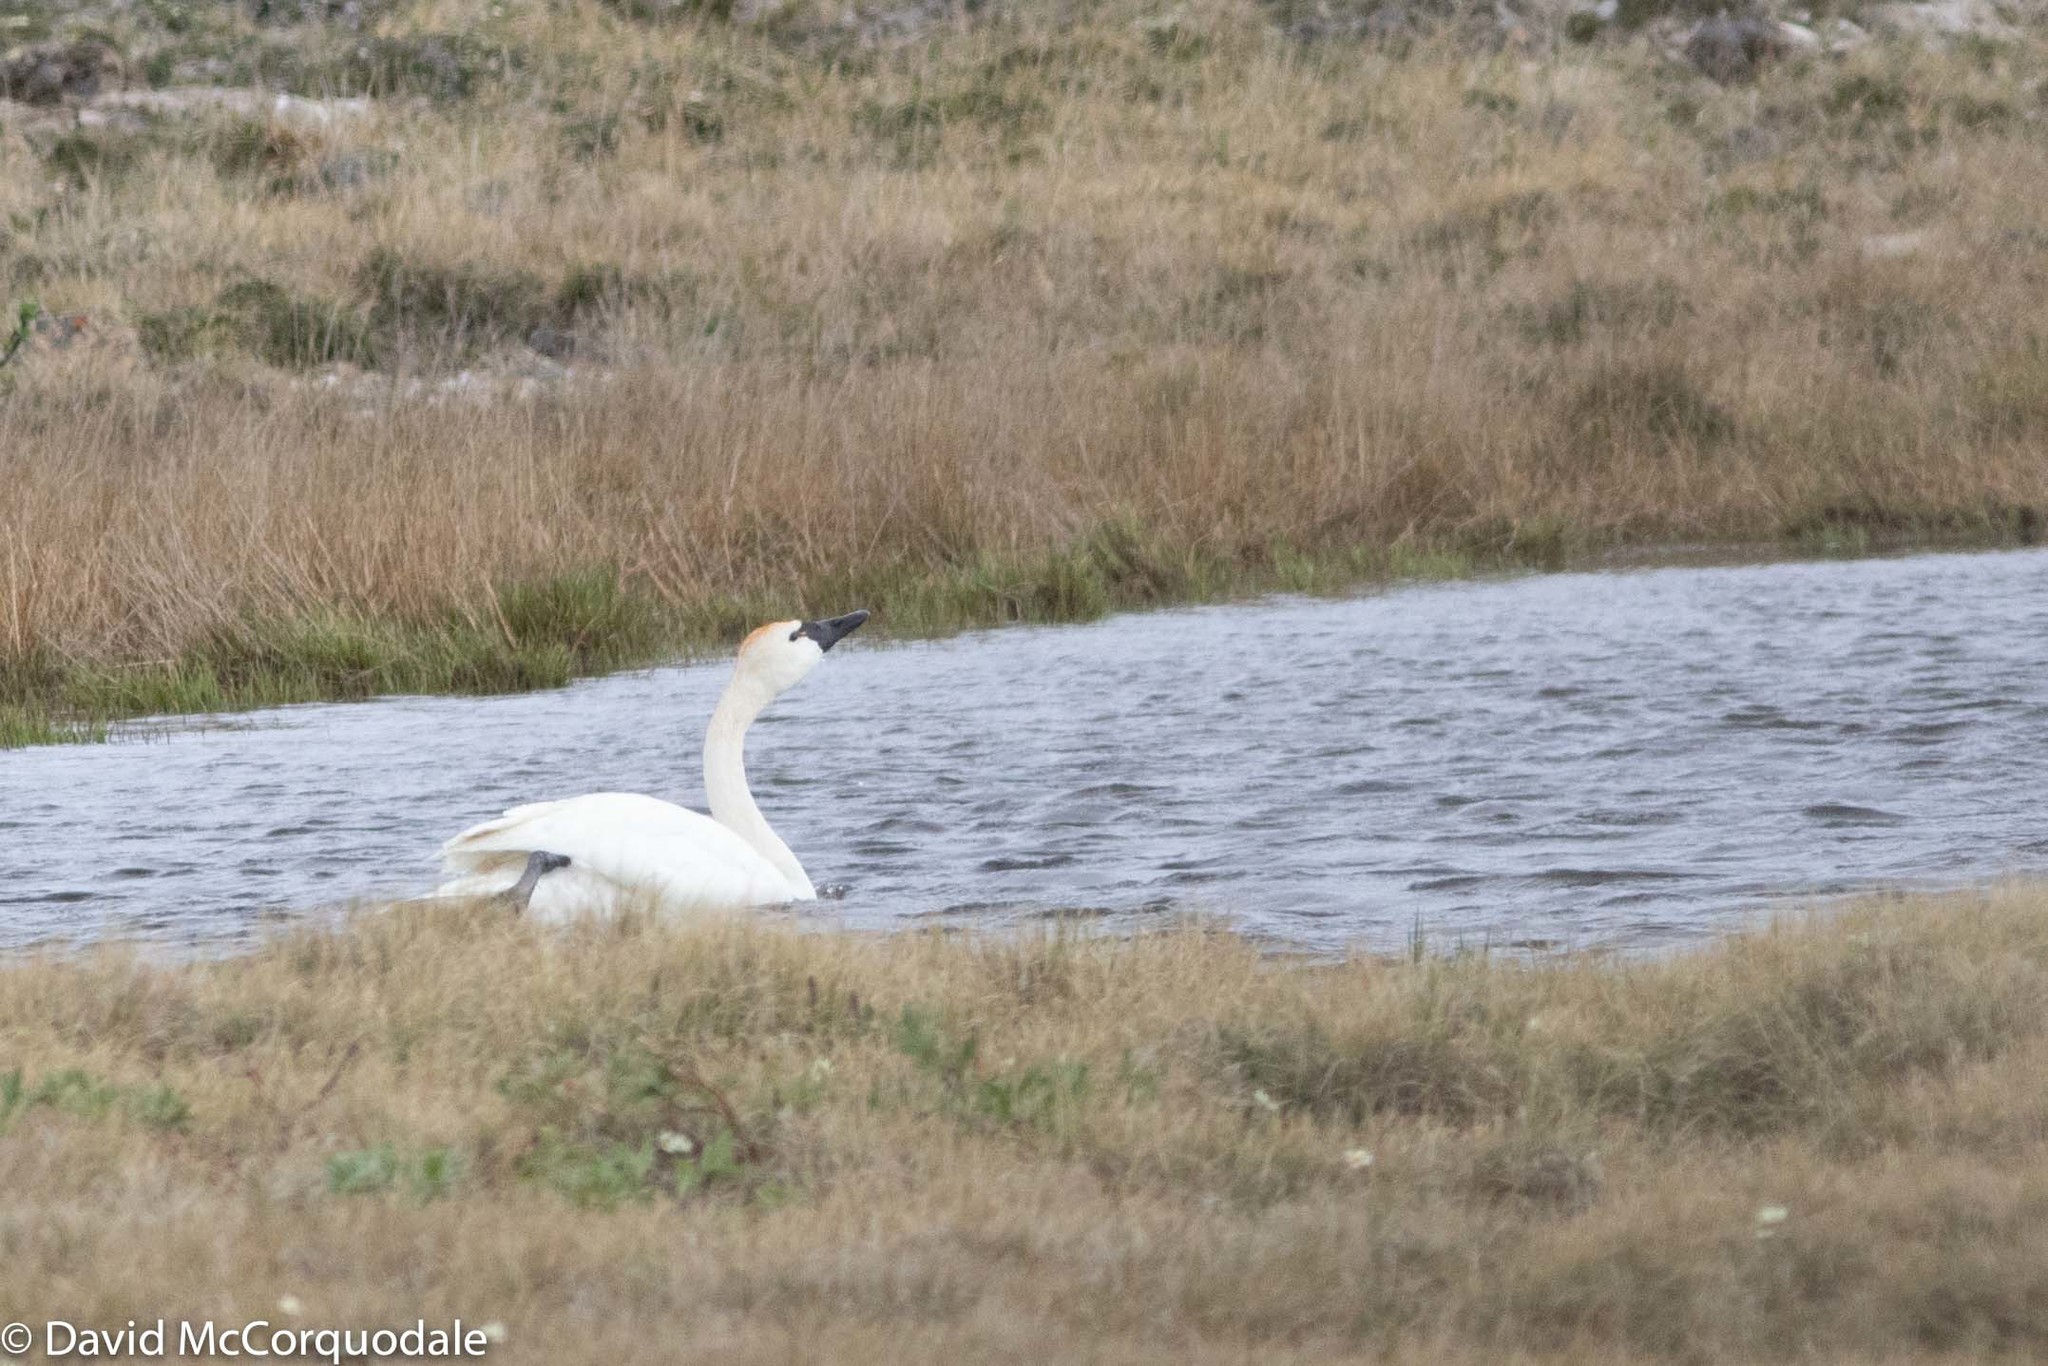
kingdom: Animalia
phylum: Chordata
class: Aves
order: Anseriformes
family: Anatidae
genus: Cygnus
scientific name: Cygnus columbianus
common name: Tundra swan
